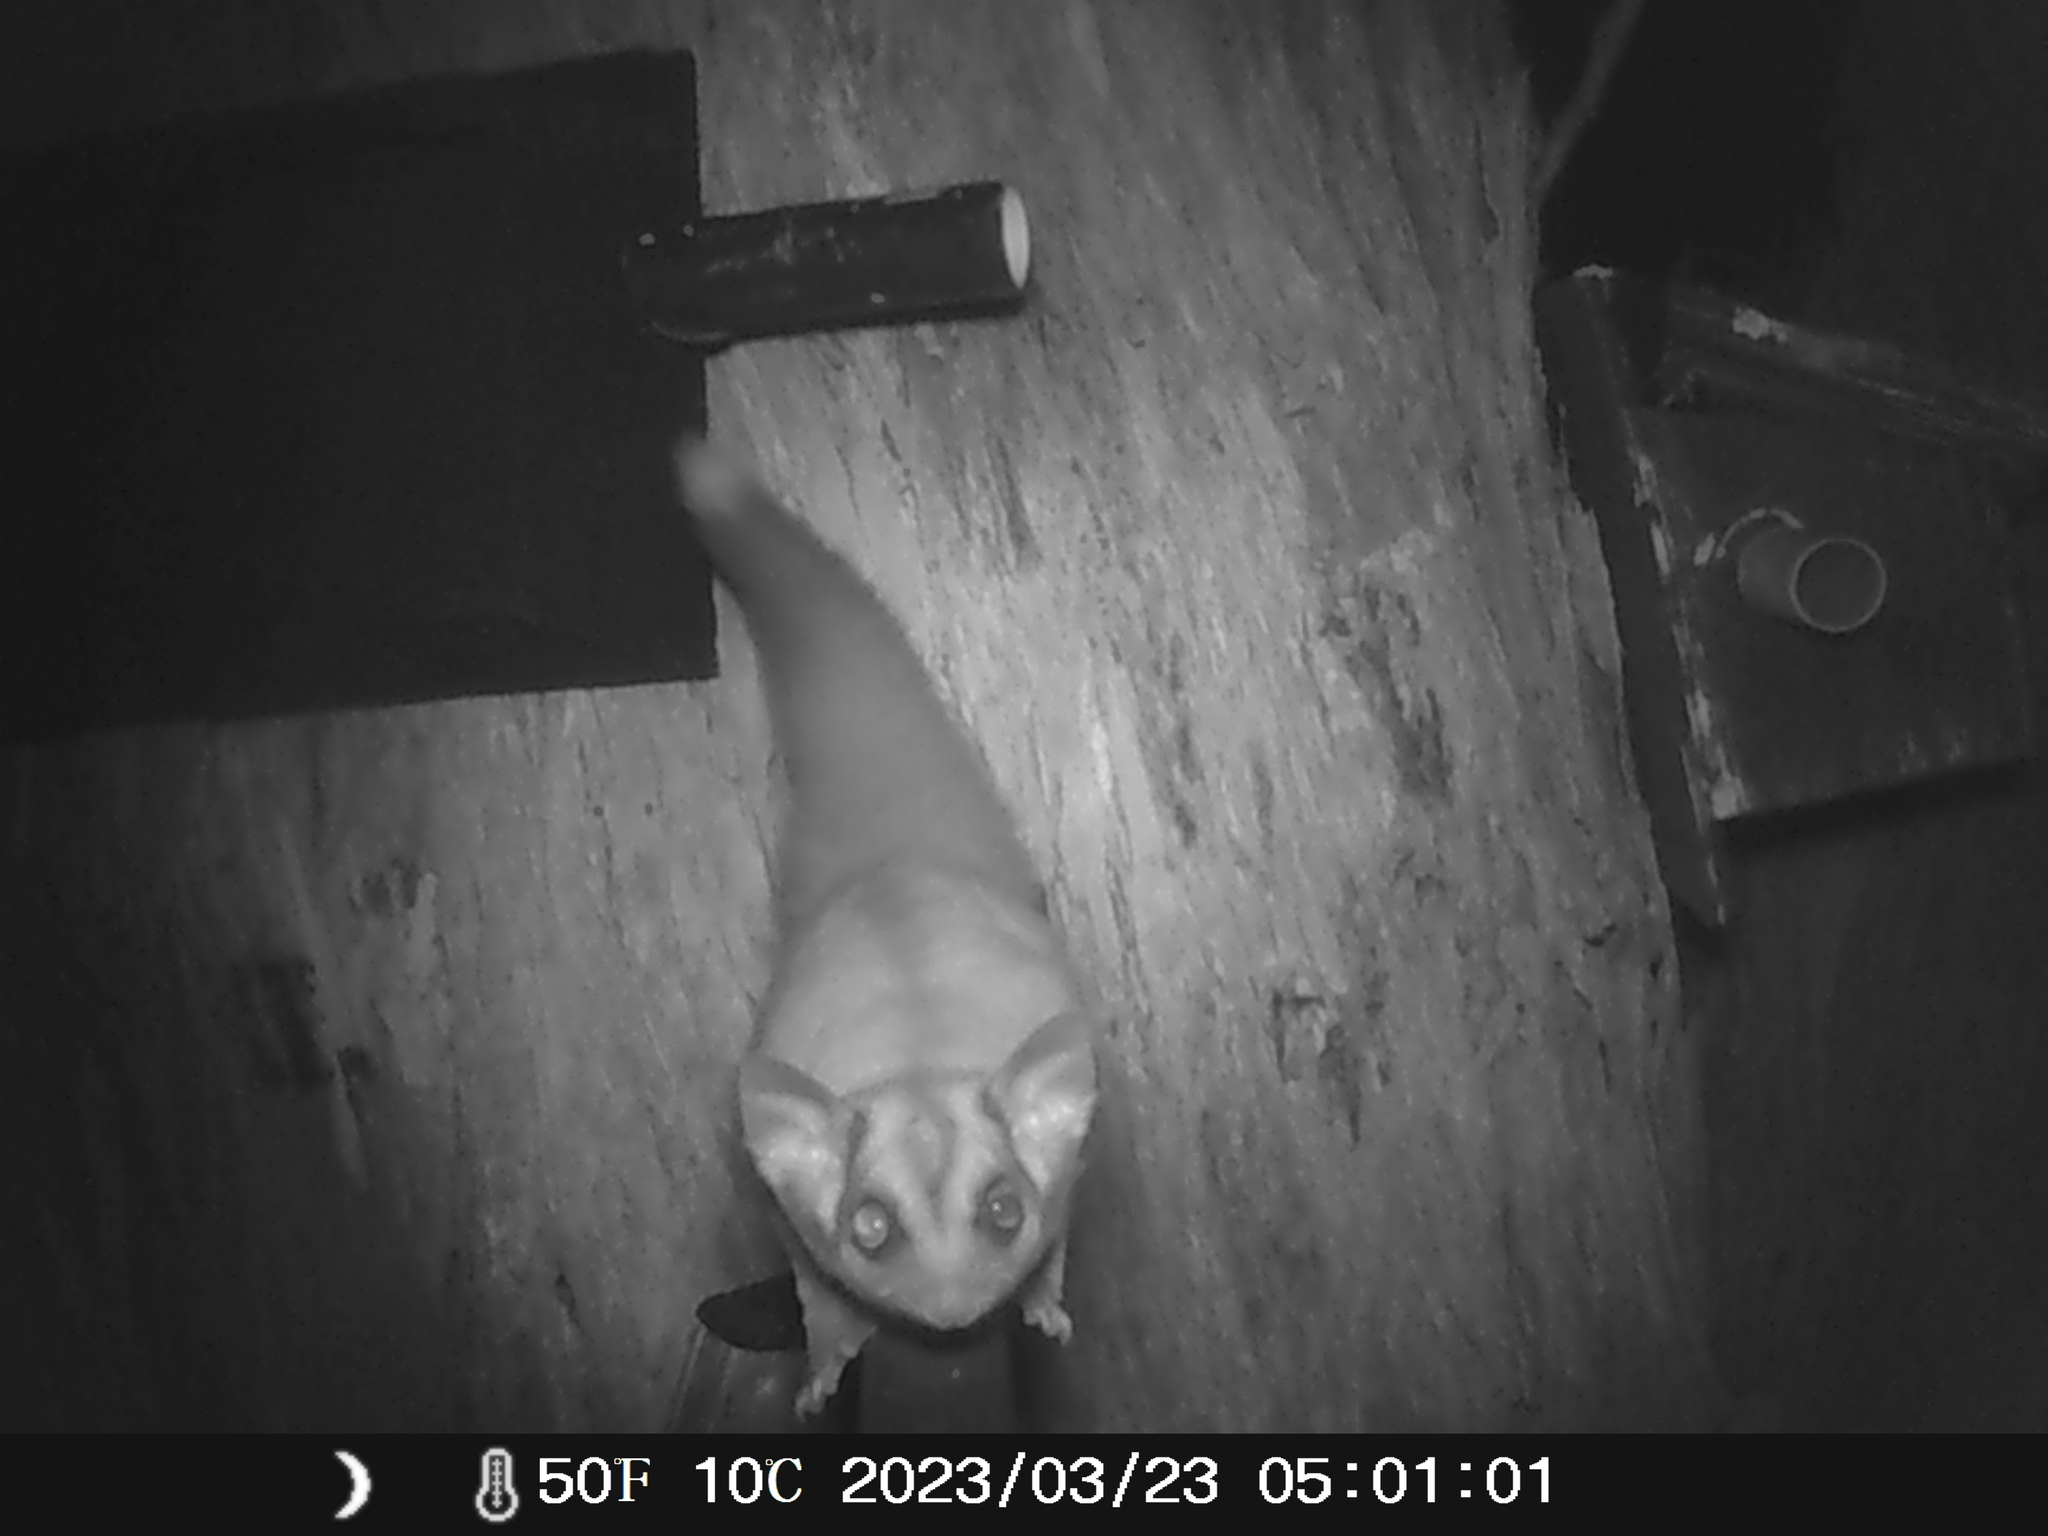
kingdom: Animalia
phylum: Chordata
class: Mammalia
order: Diprotodontia
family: Petauridae
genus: Petaurus
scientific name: Petaurus breviceps
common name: Sugar glider
